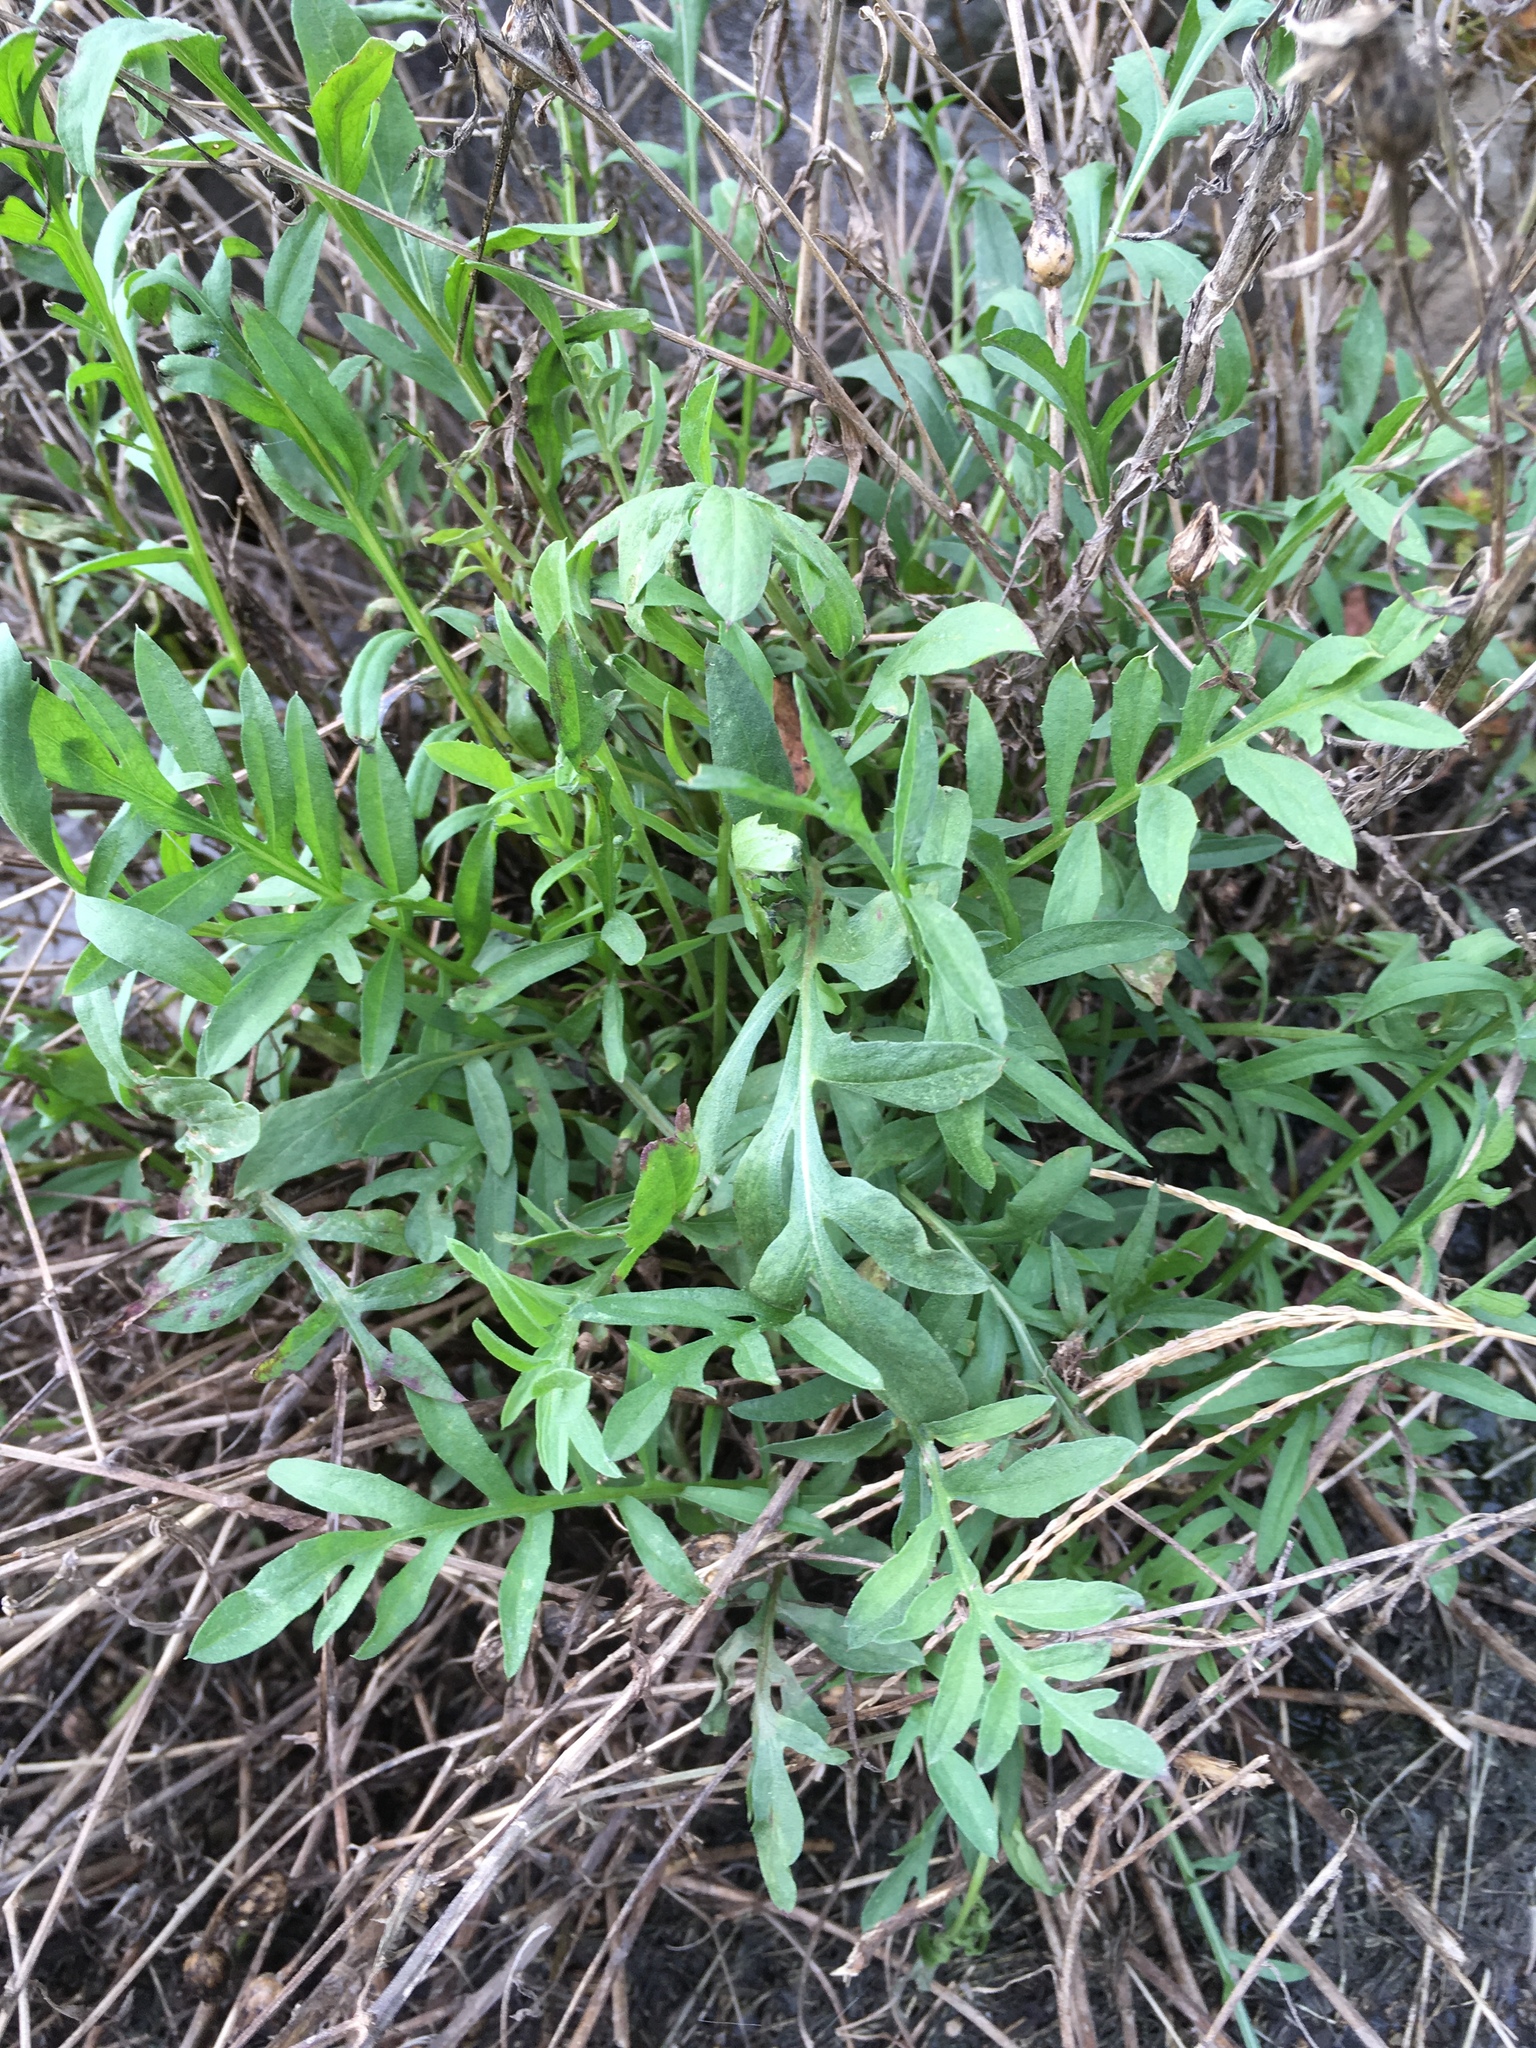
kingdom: Plantae
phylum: Tracheophyta
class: Magnoliopsida
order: Asterales
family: Asteraceae
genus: Centaurea
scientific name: Centaurea stoebe
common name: Spotted knapweed
